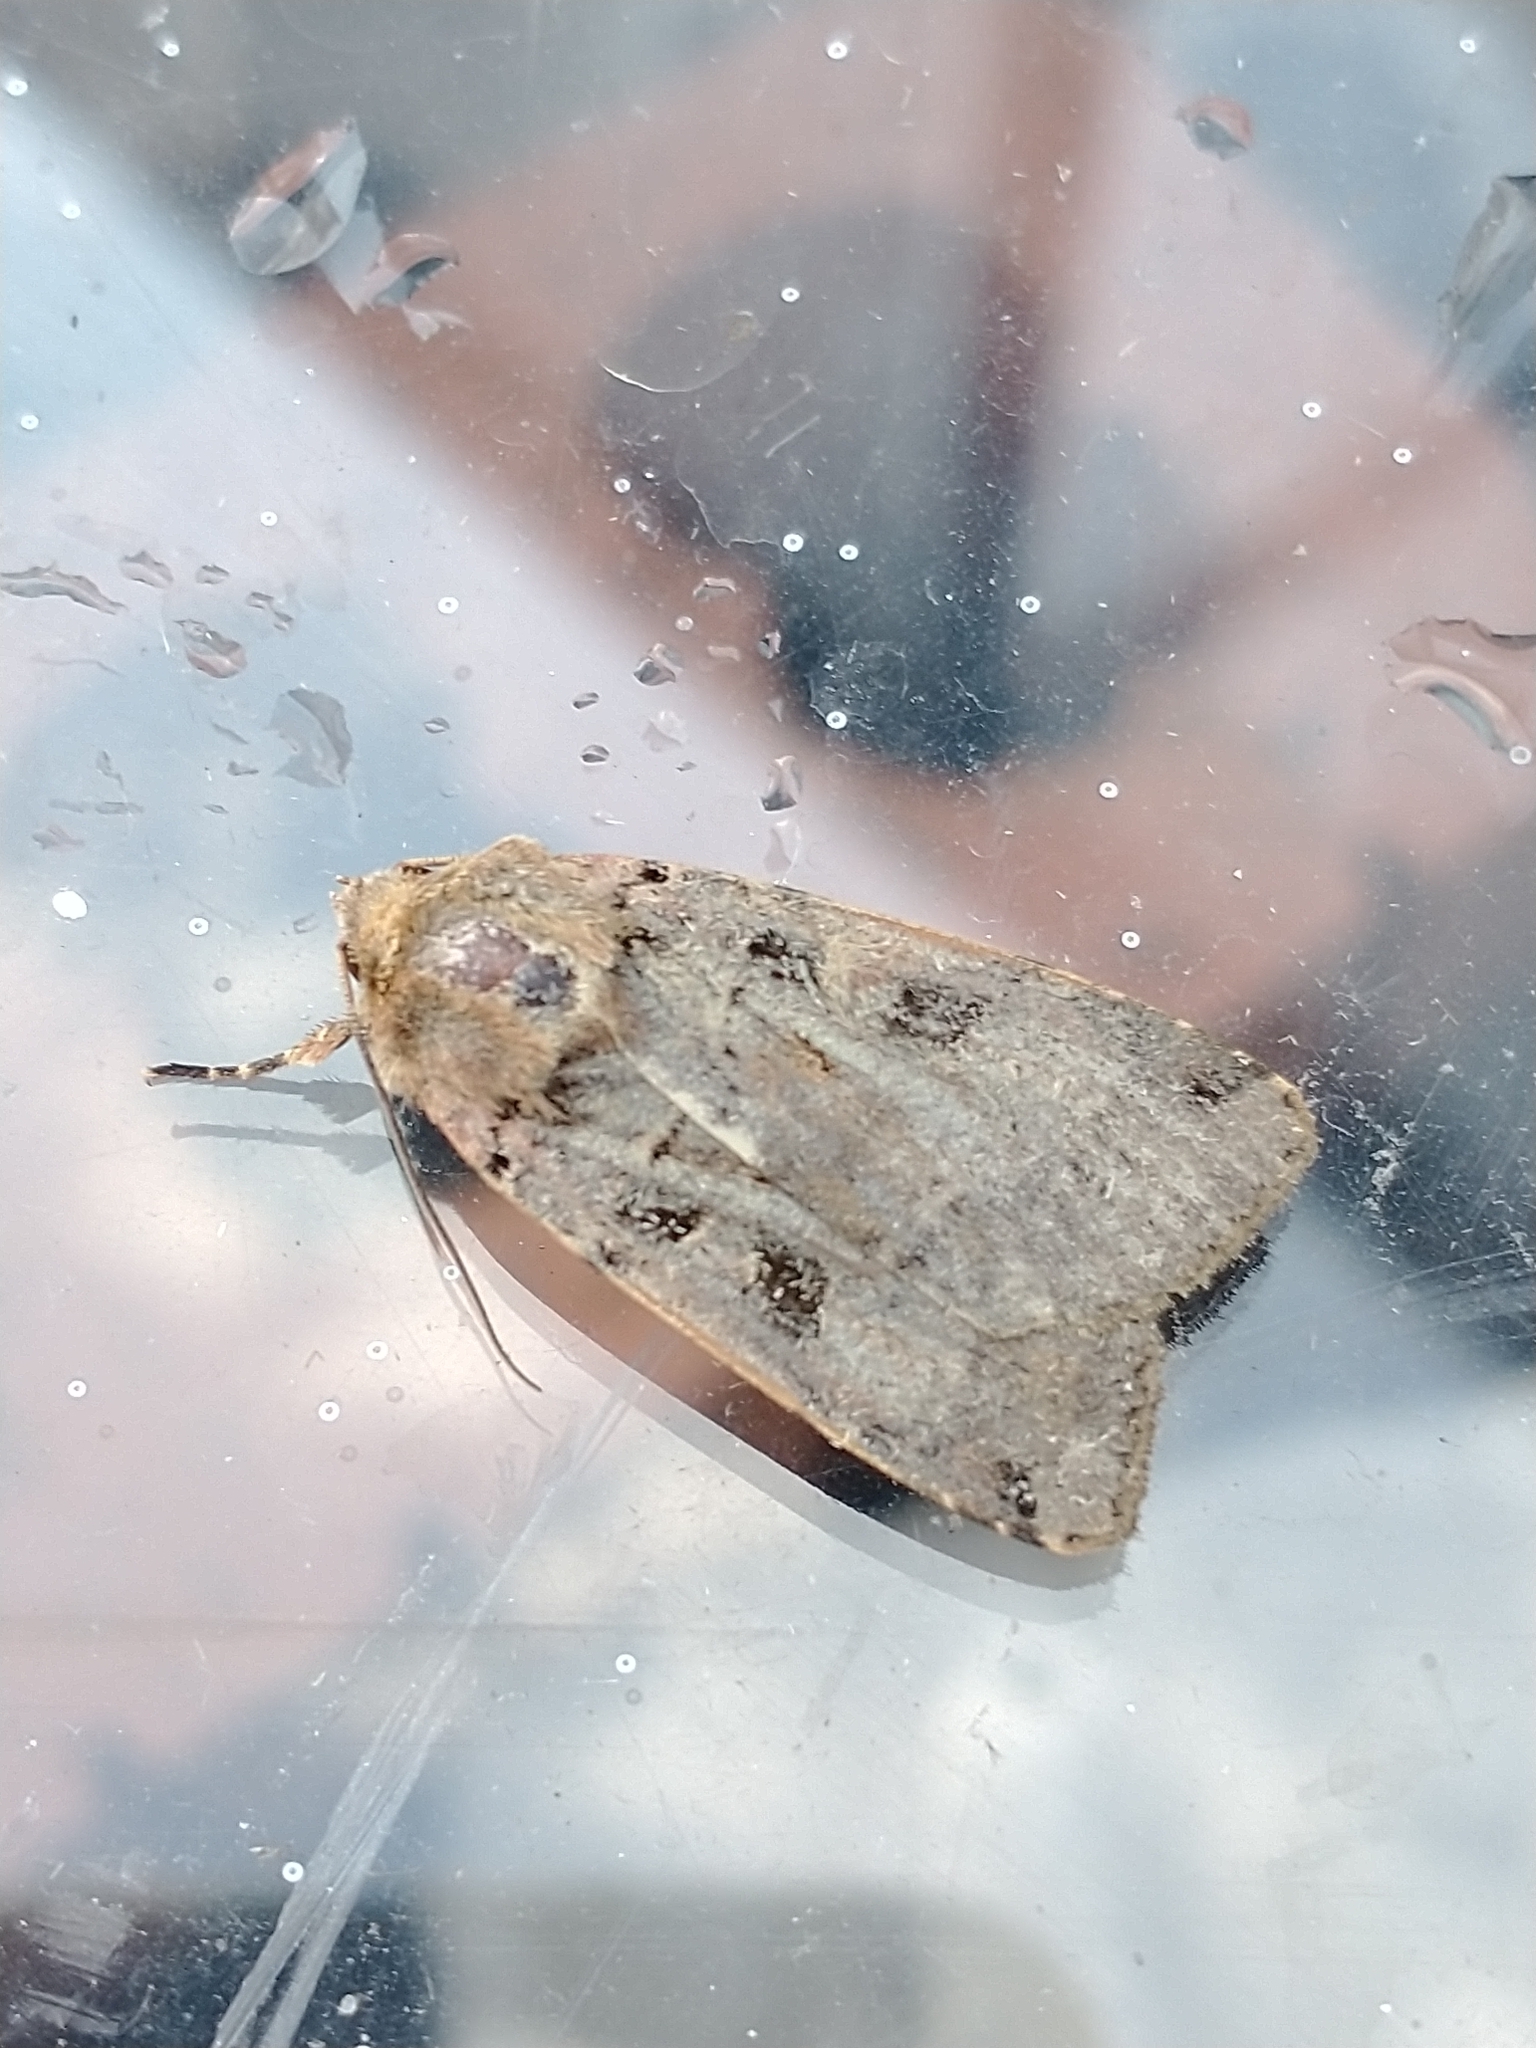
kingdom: Animalia
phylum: Arthropoda
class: Insecta
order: Lepidoptera
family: Noctuidae
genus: Xestia
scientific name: Xestia triangulum
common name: Double square-spot
